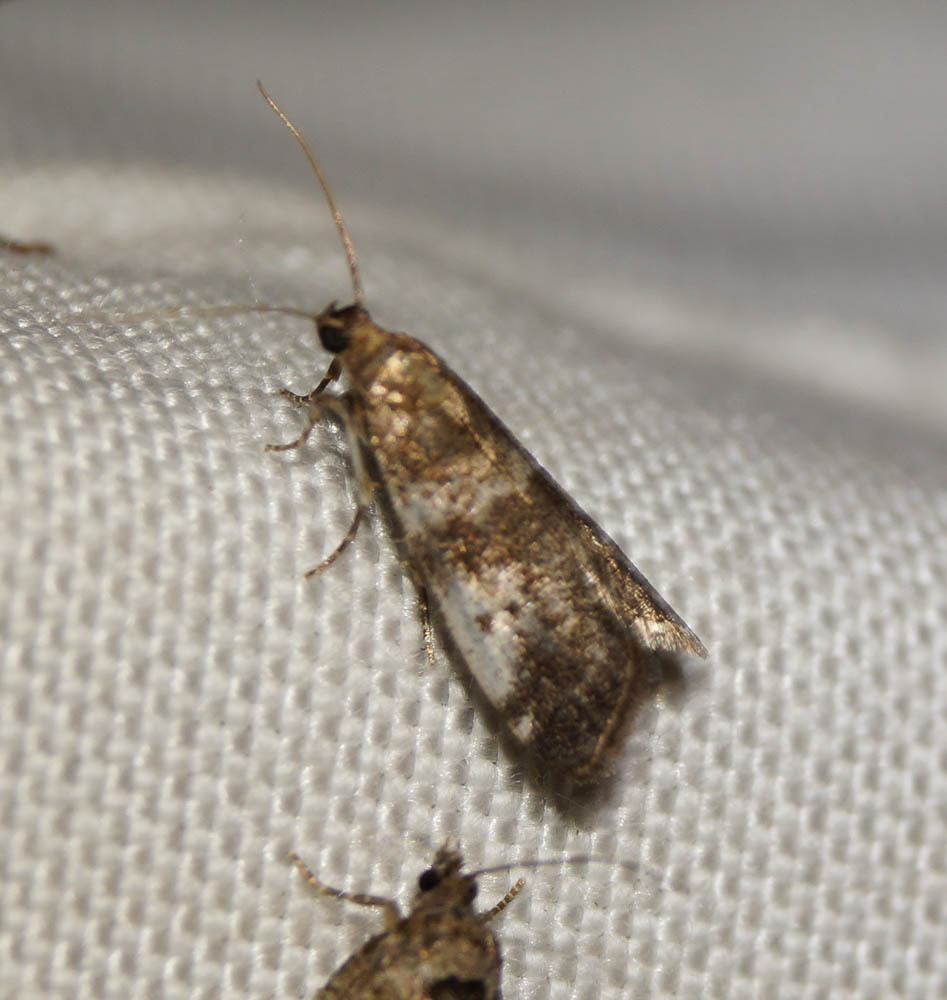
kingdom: Animalia
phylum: Arthropoda
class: Insecta
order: Lepidoptera
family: Pyralidae
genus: Assara
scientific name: Assara terebrella
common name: Dark spruce knot-horn
